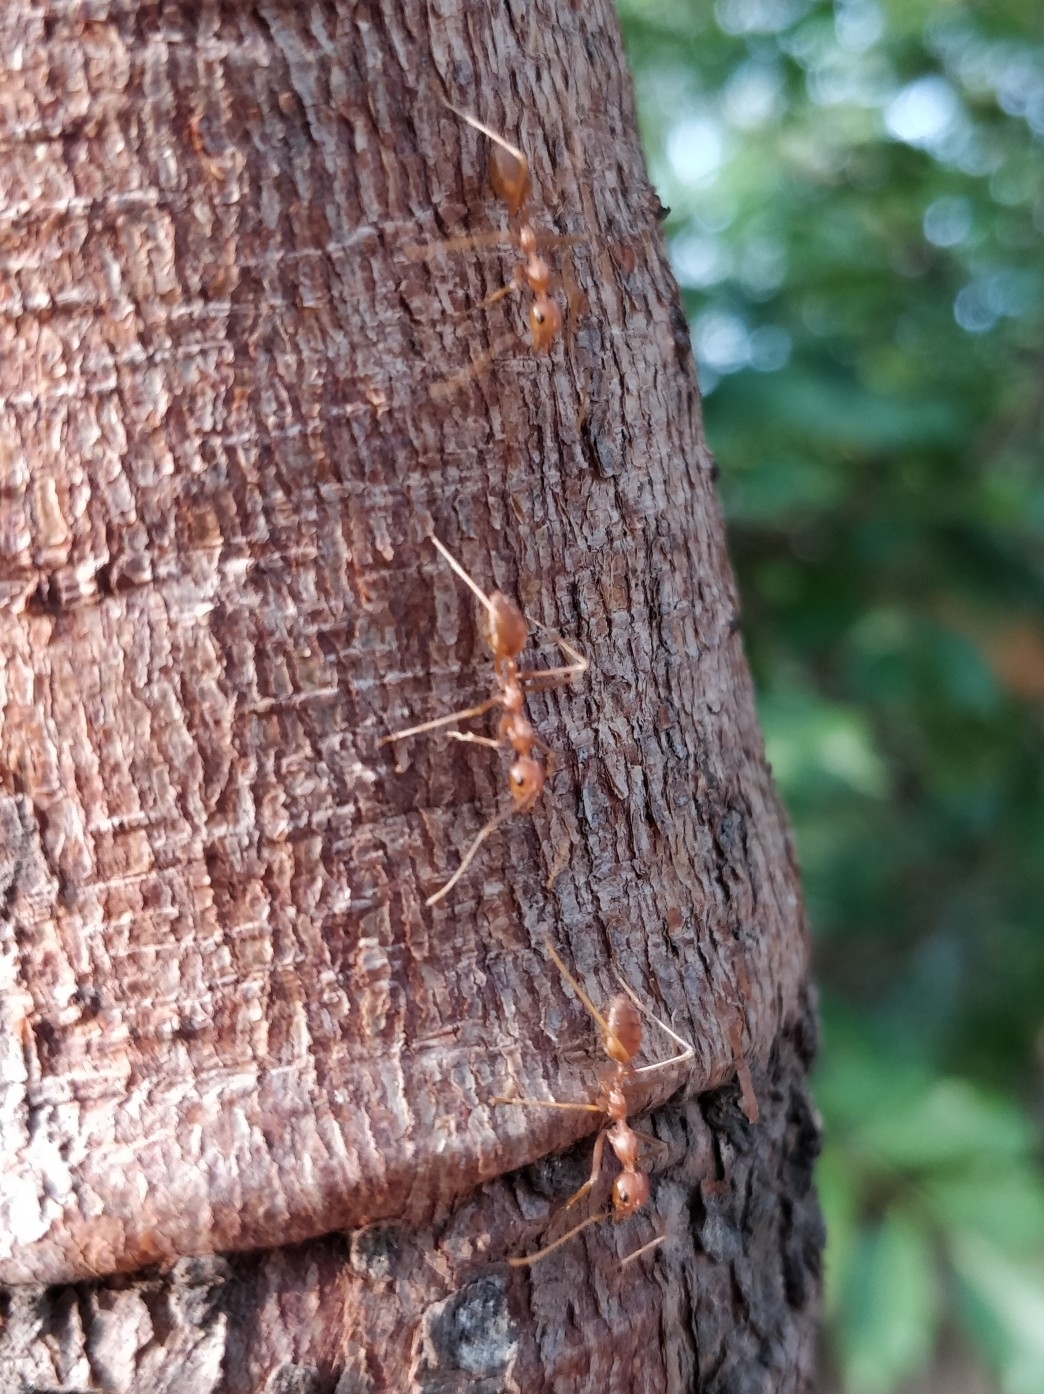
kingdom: Animalia
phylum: Arthropoda
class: Insecta
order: Hymenoptera
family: Formicidae
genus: Oecophylla
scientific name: Oecophylla smaragdina
